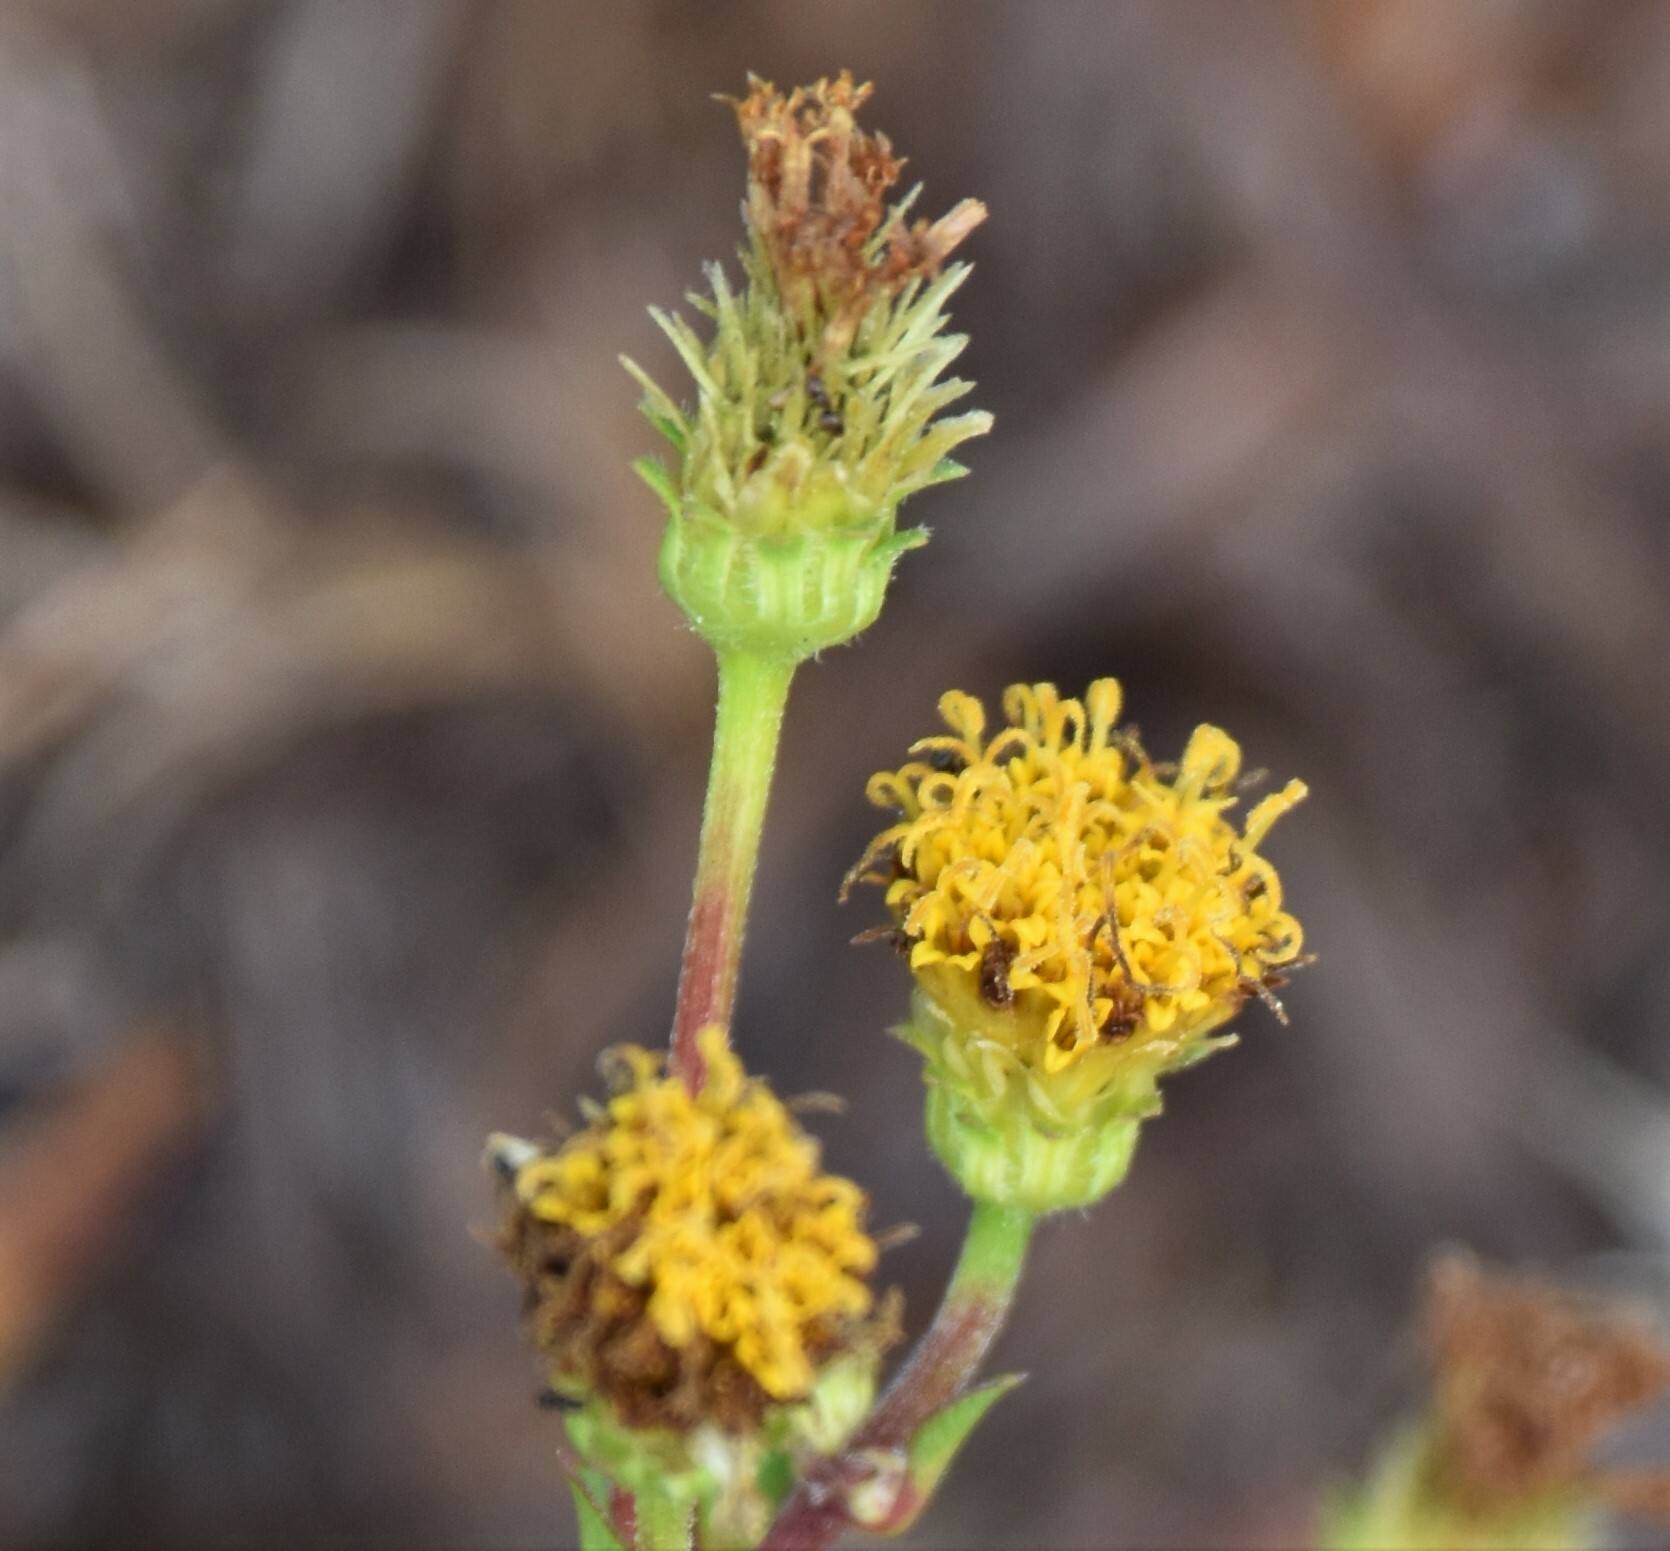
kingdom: Plantae
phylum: Tracheophyta
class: Magnoliopsida
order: Asterales
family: Asteraceae
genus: Bidens
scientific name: Bidens alba
